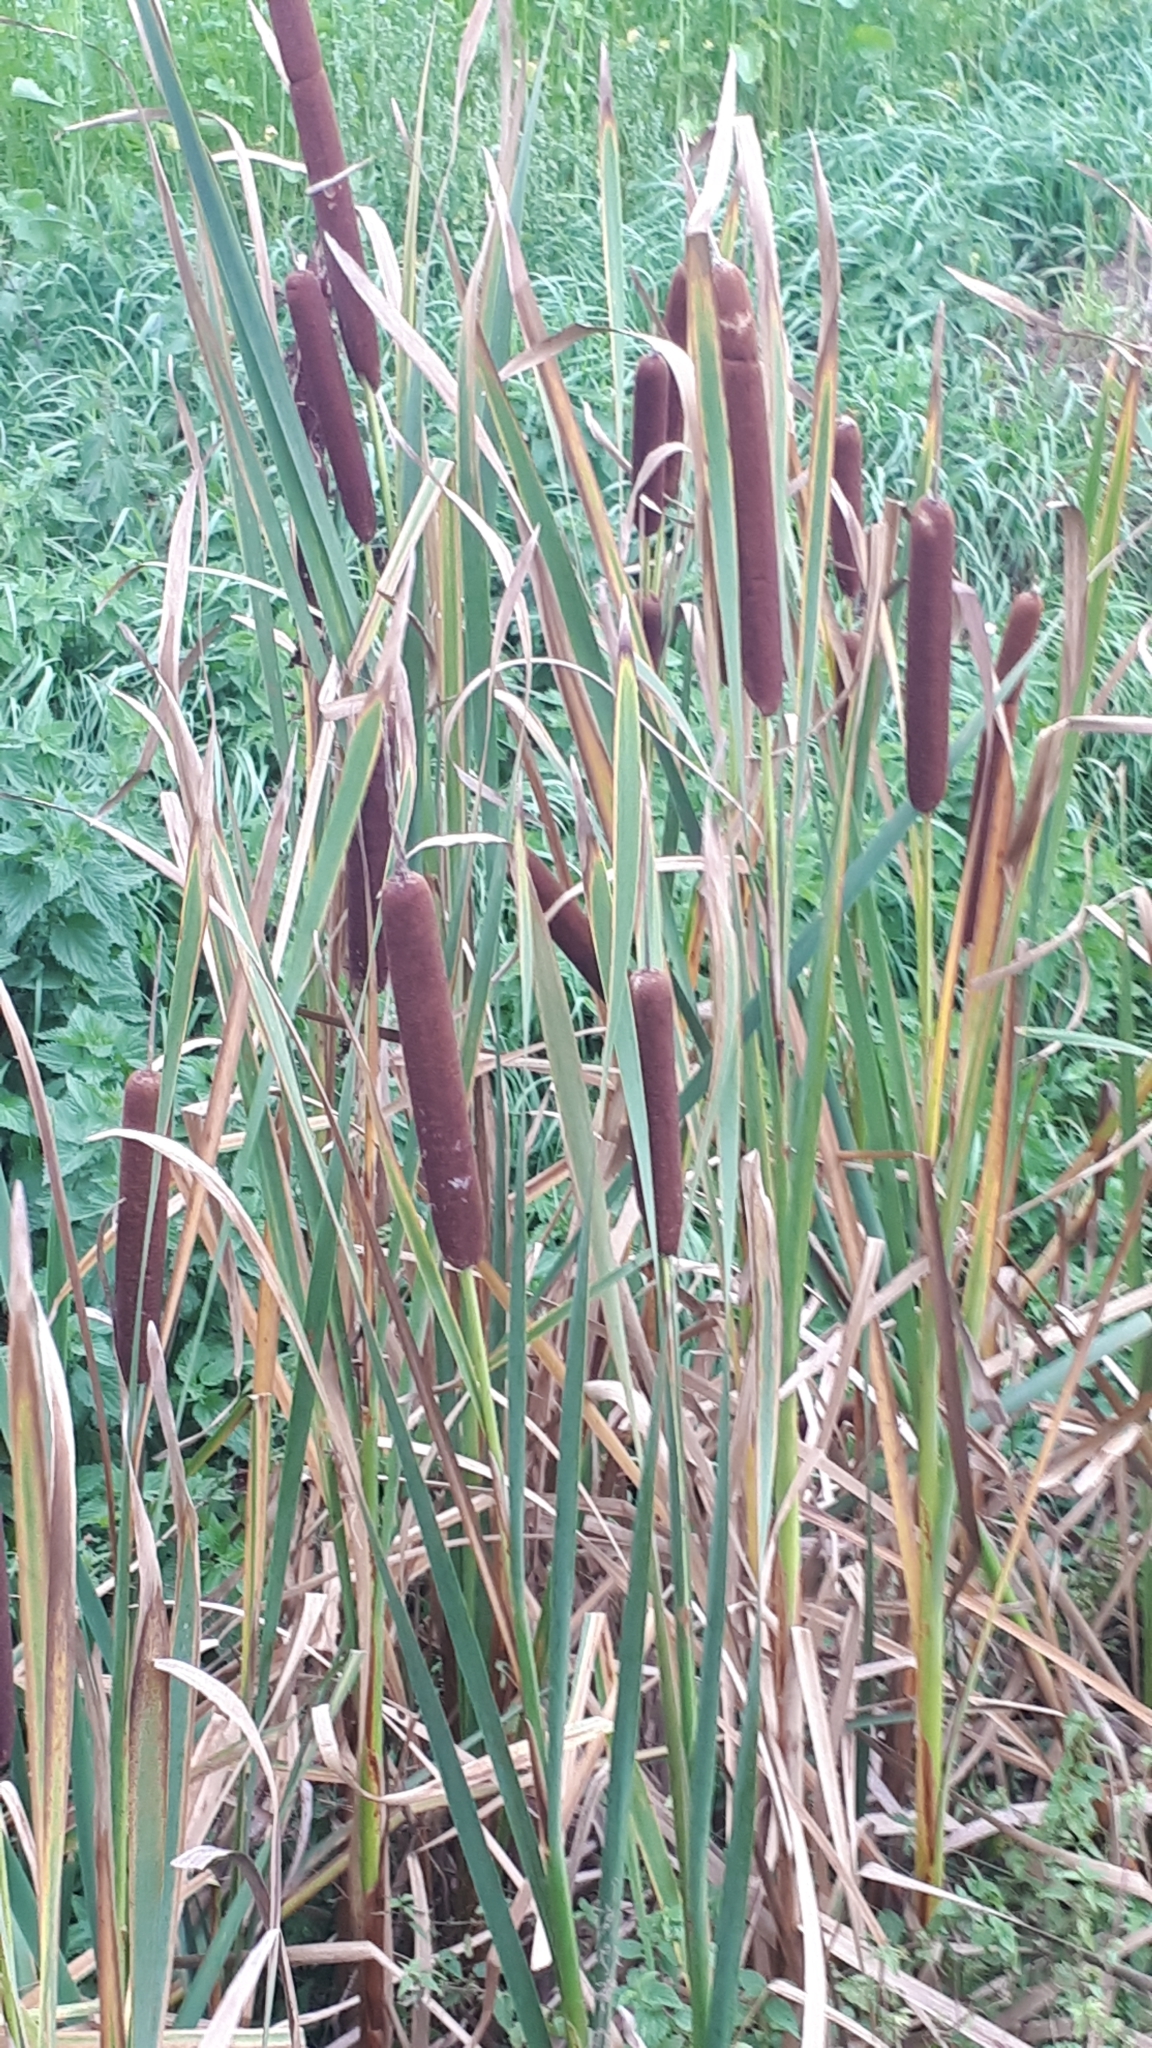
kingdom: Plantae
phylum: Tracheophyta
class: Liliopsida
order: Poales
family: Typhaceae
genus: Typha
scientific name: Typha latifolia
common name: Broadleaf cattail
